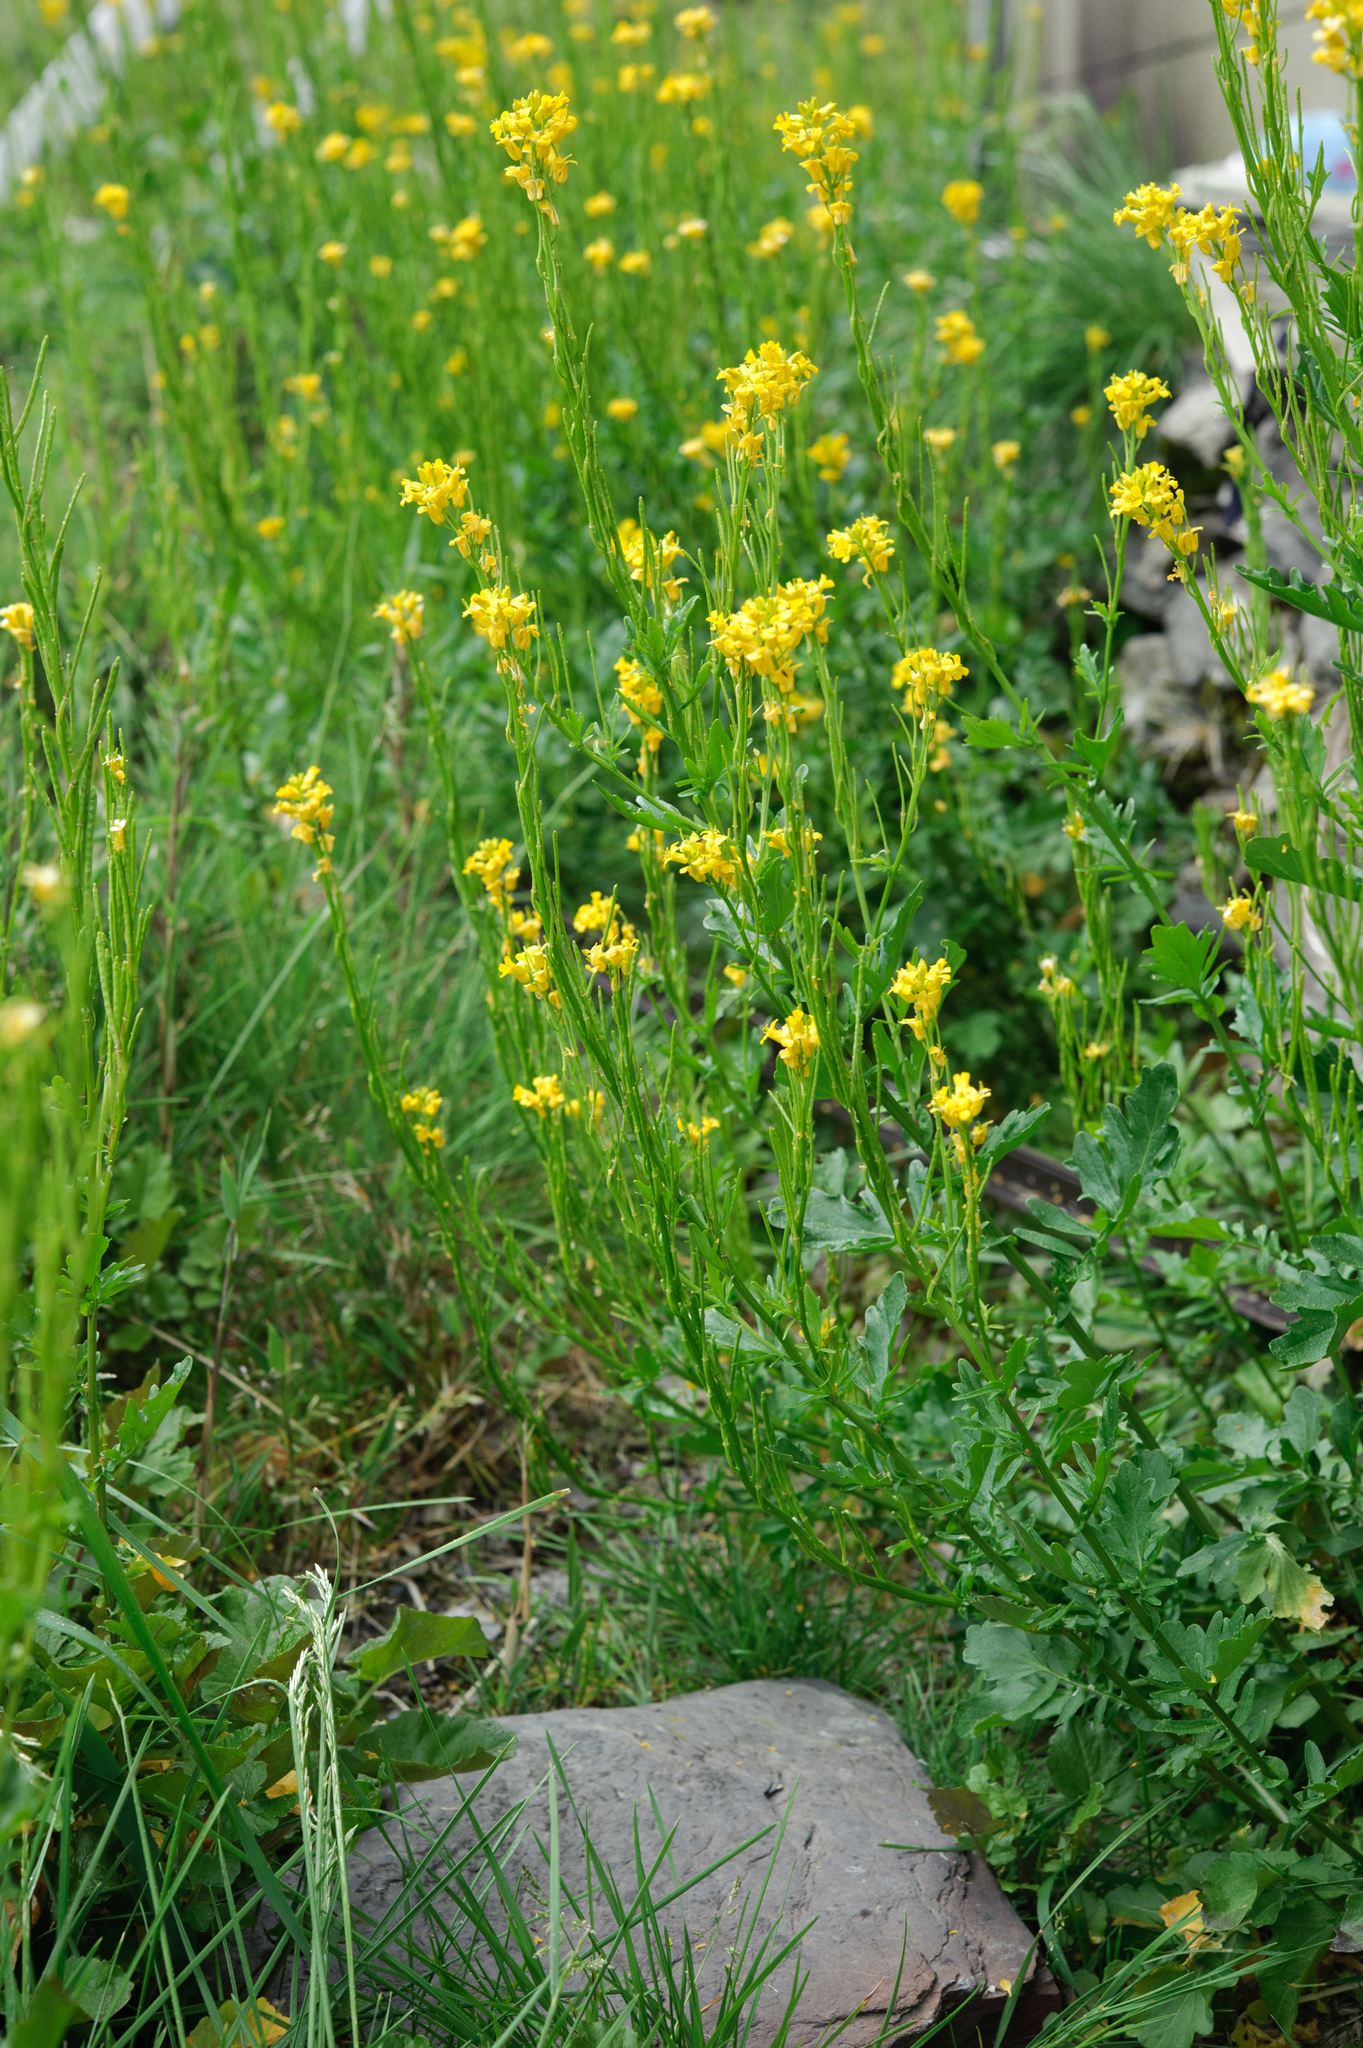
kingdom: Plantae
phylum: Tracheophyta
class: Magnoliopsida
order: Brassicales
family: Brassicaceae
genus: Barbarea
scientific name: Barbarea orthoceras
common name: American wintercress
